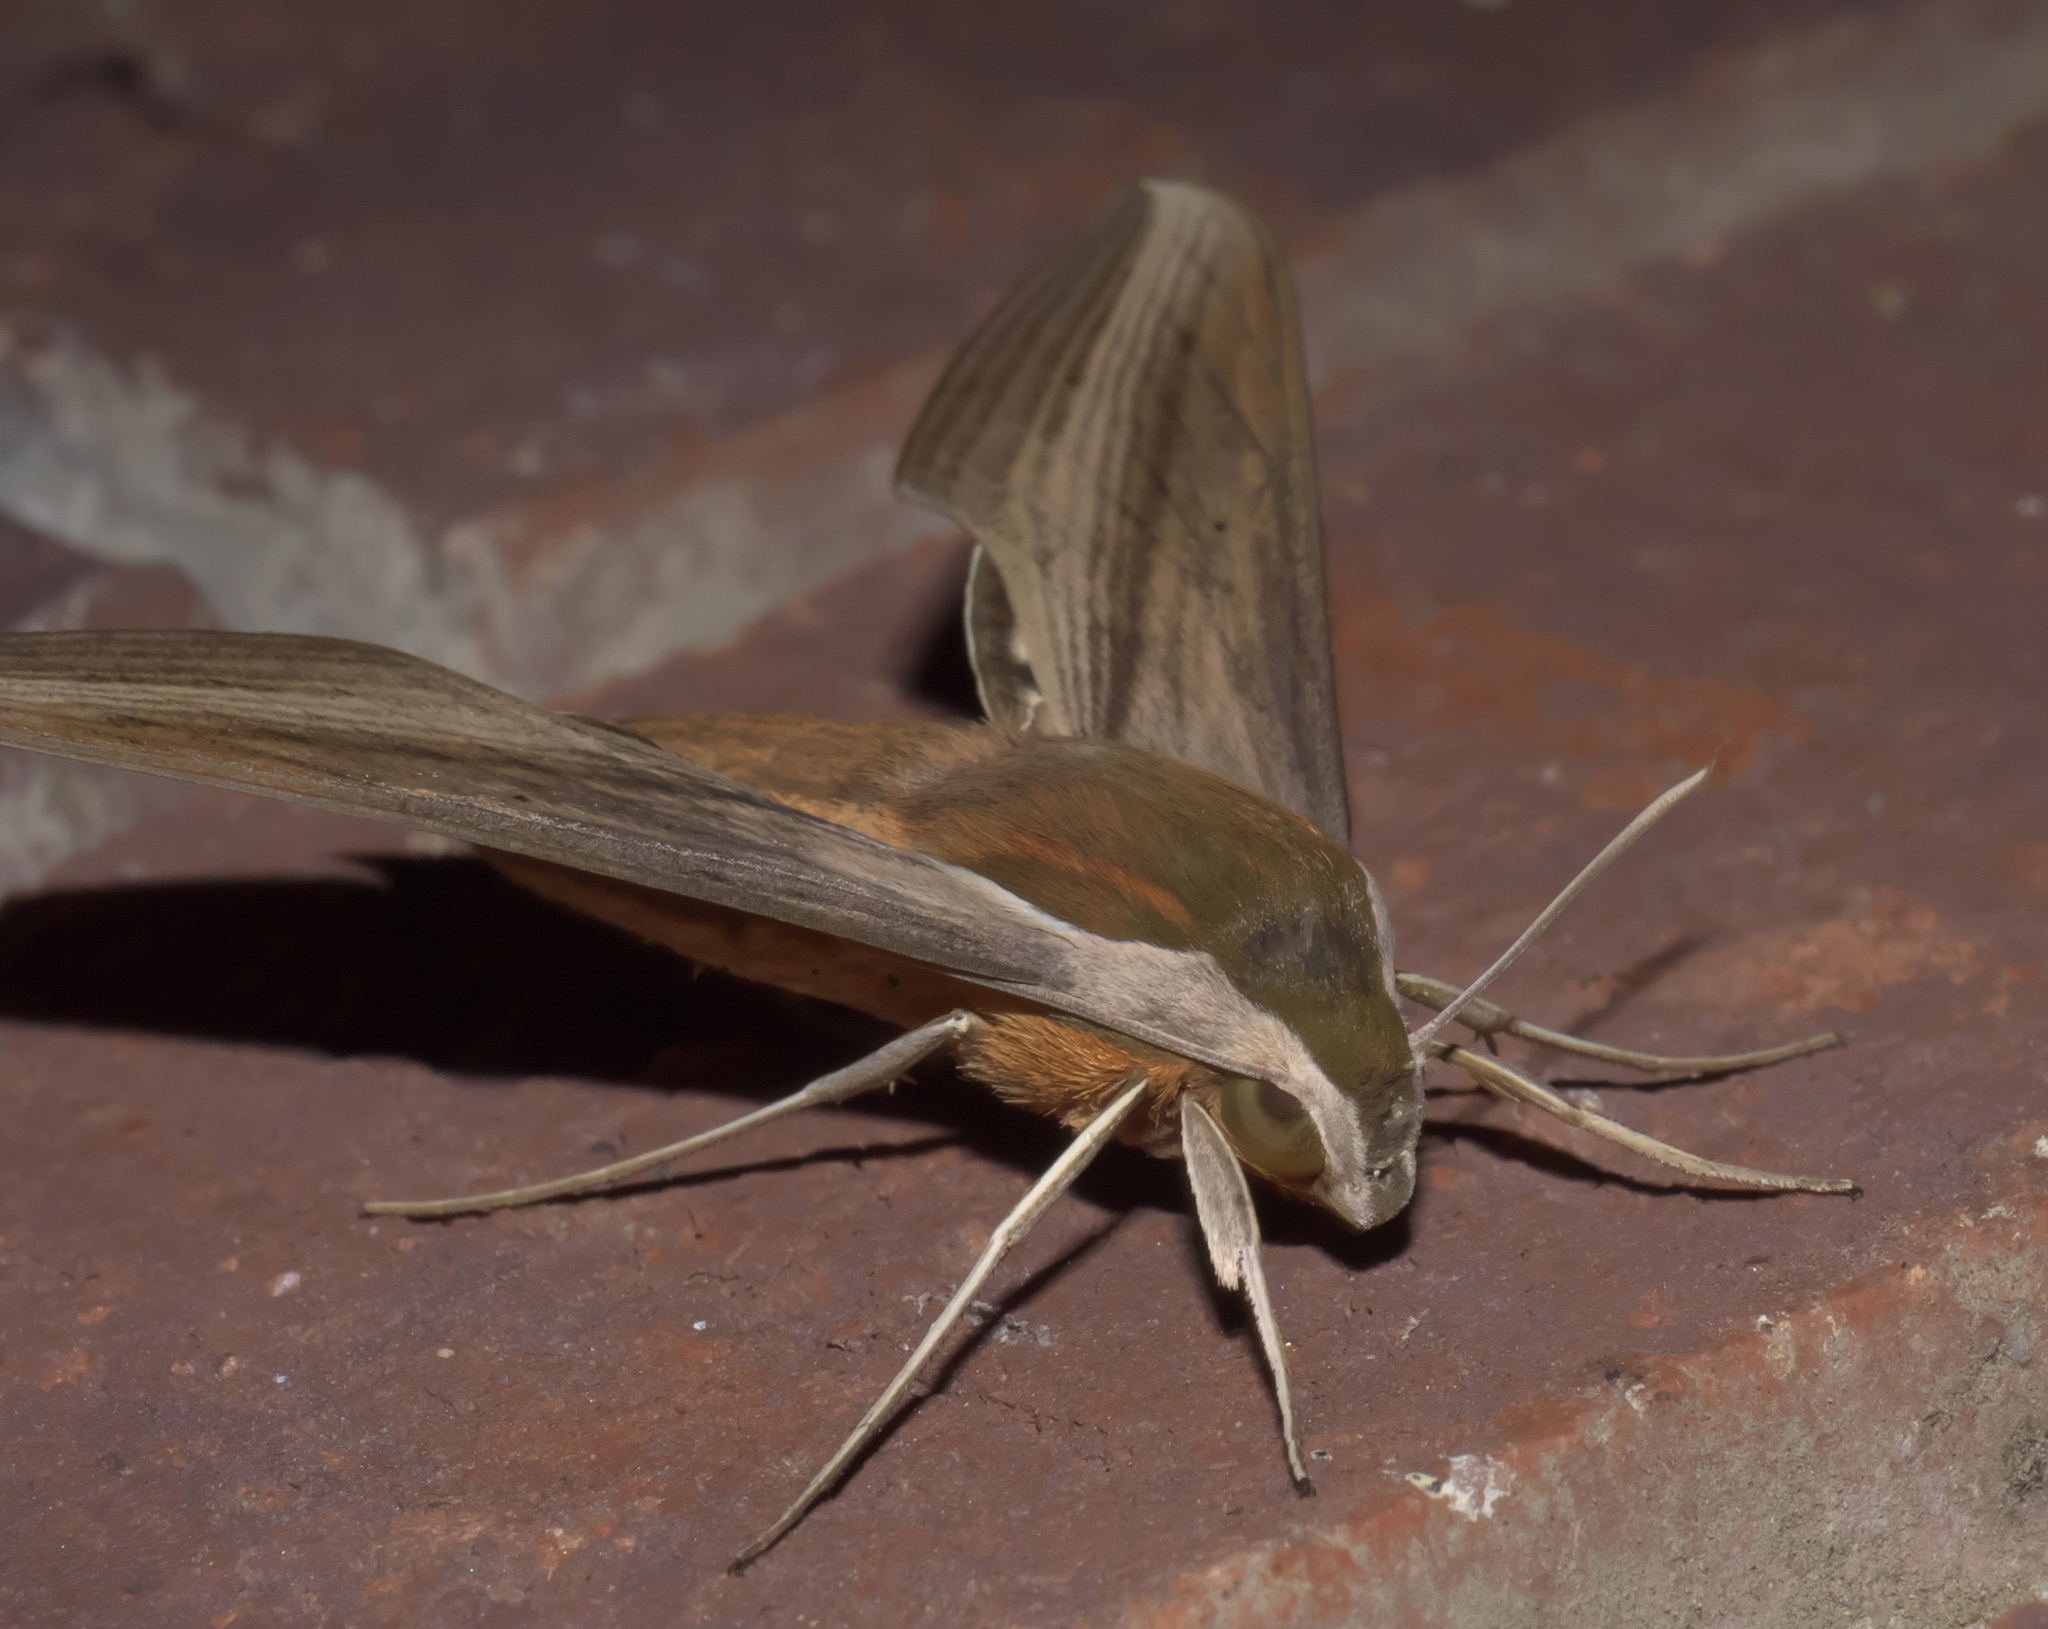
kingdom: Animalia
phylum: Arthropoda
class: Insecta
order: Lepidoptera
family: Sphingidae
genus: Xylophanes
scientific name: Xylophanes tersa
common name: Tersa sphinx
